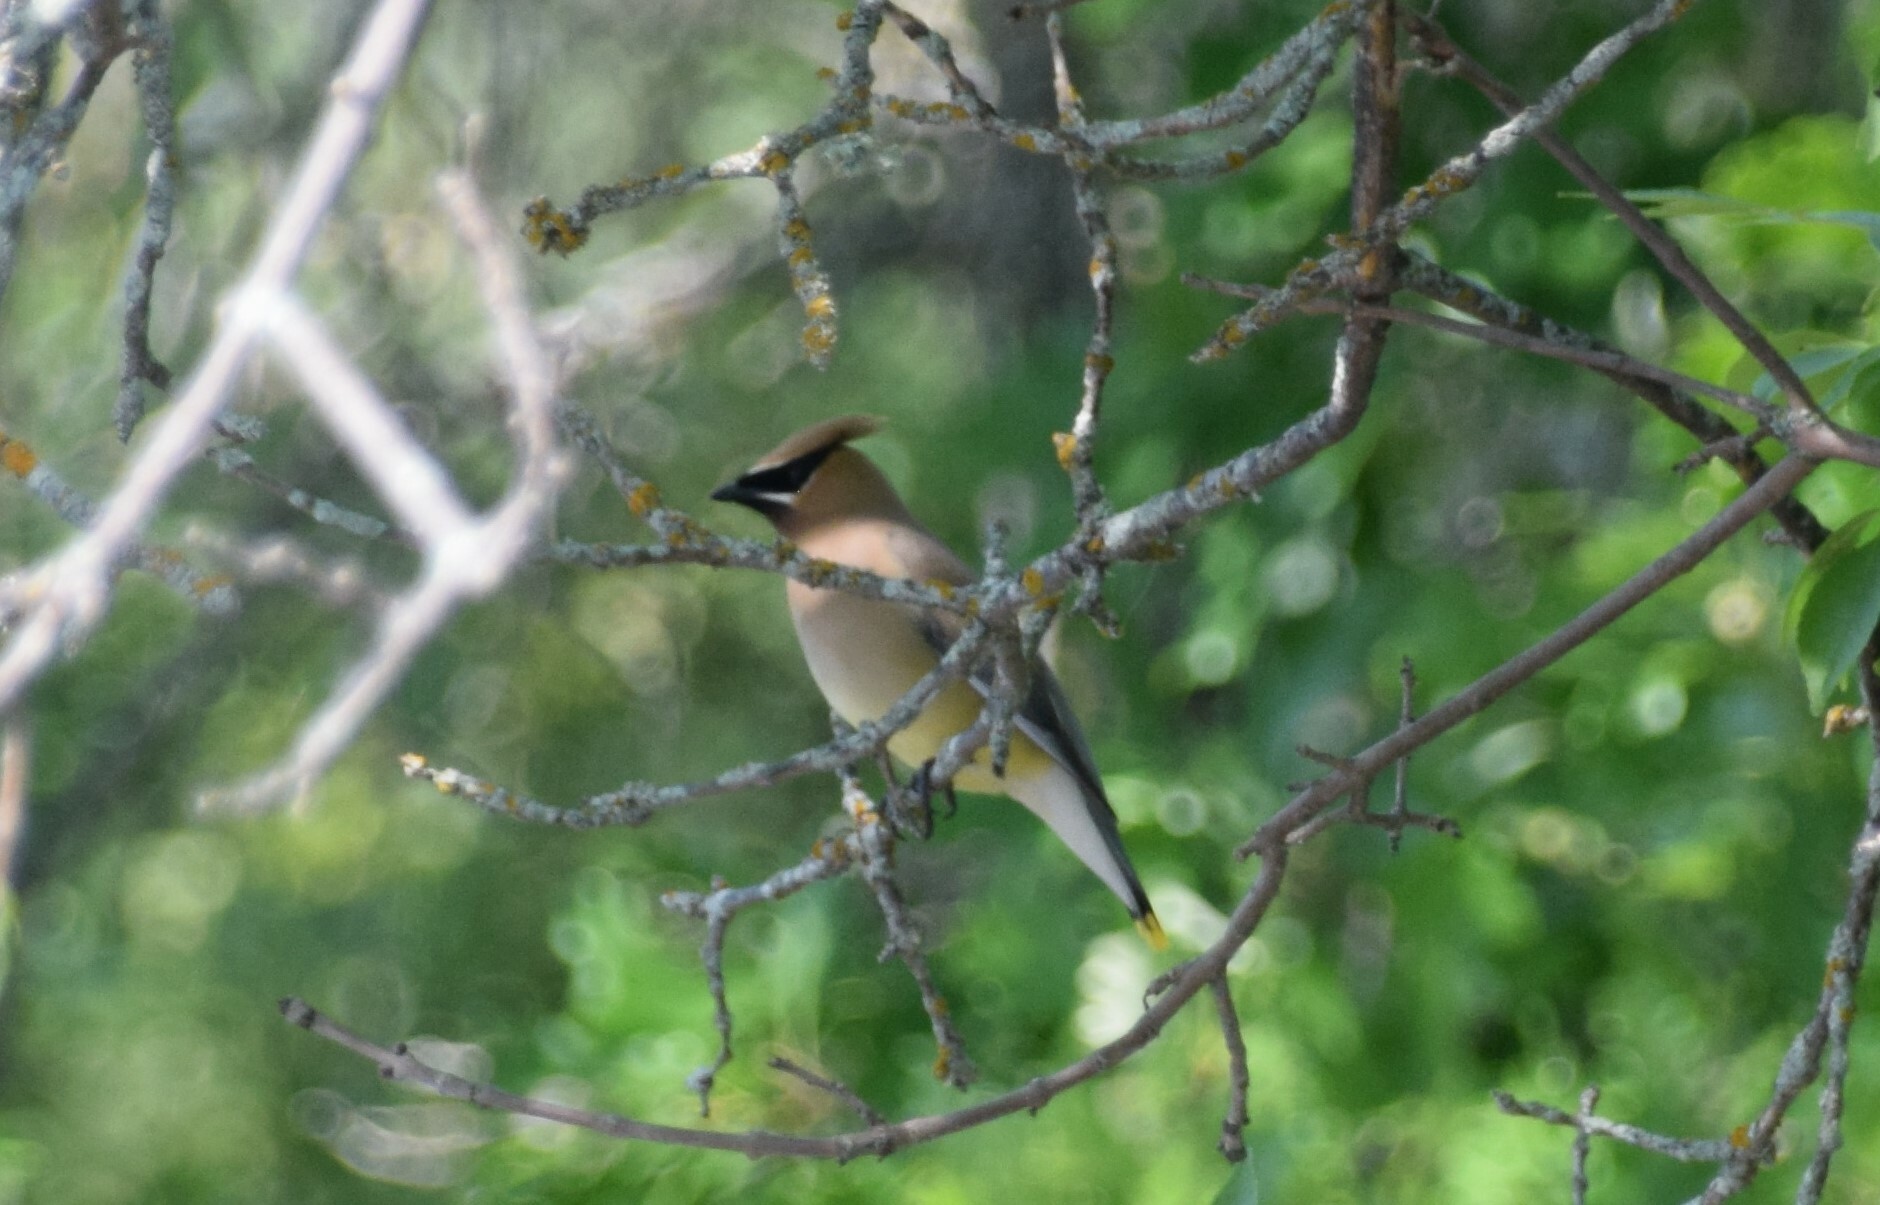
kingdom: Animalia
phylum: Chordata
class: Aves
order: Passeriformes
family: Bombycillidae
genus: Bombycilla
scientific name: Bombycilla cedrorum
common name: Cedar waxwing
